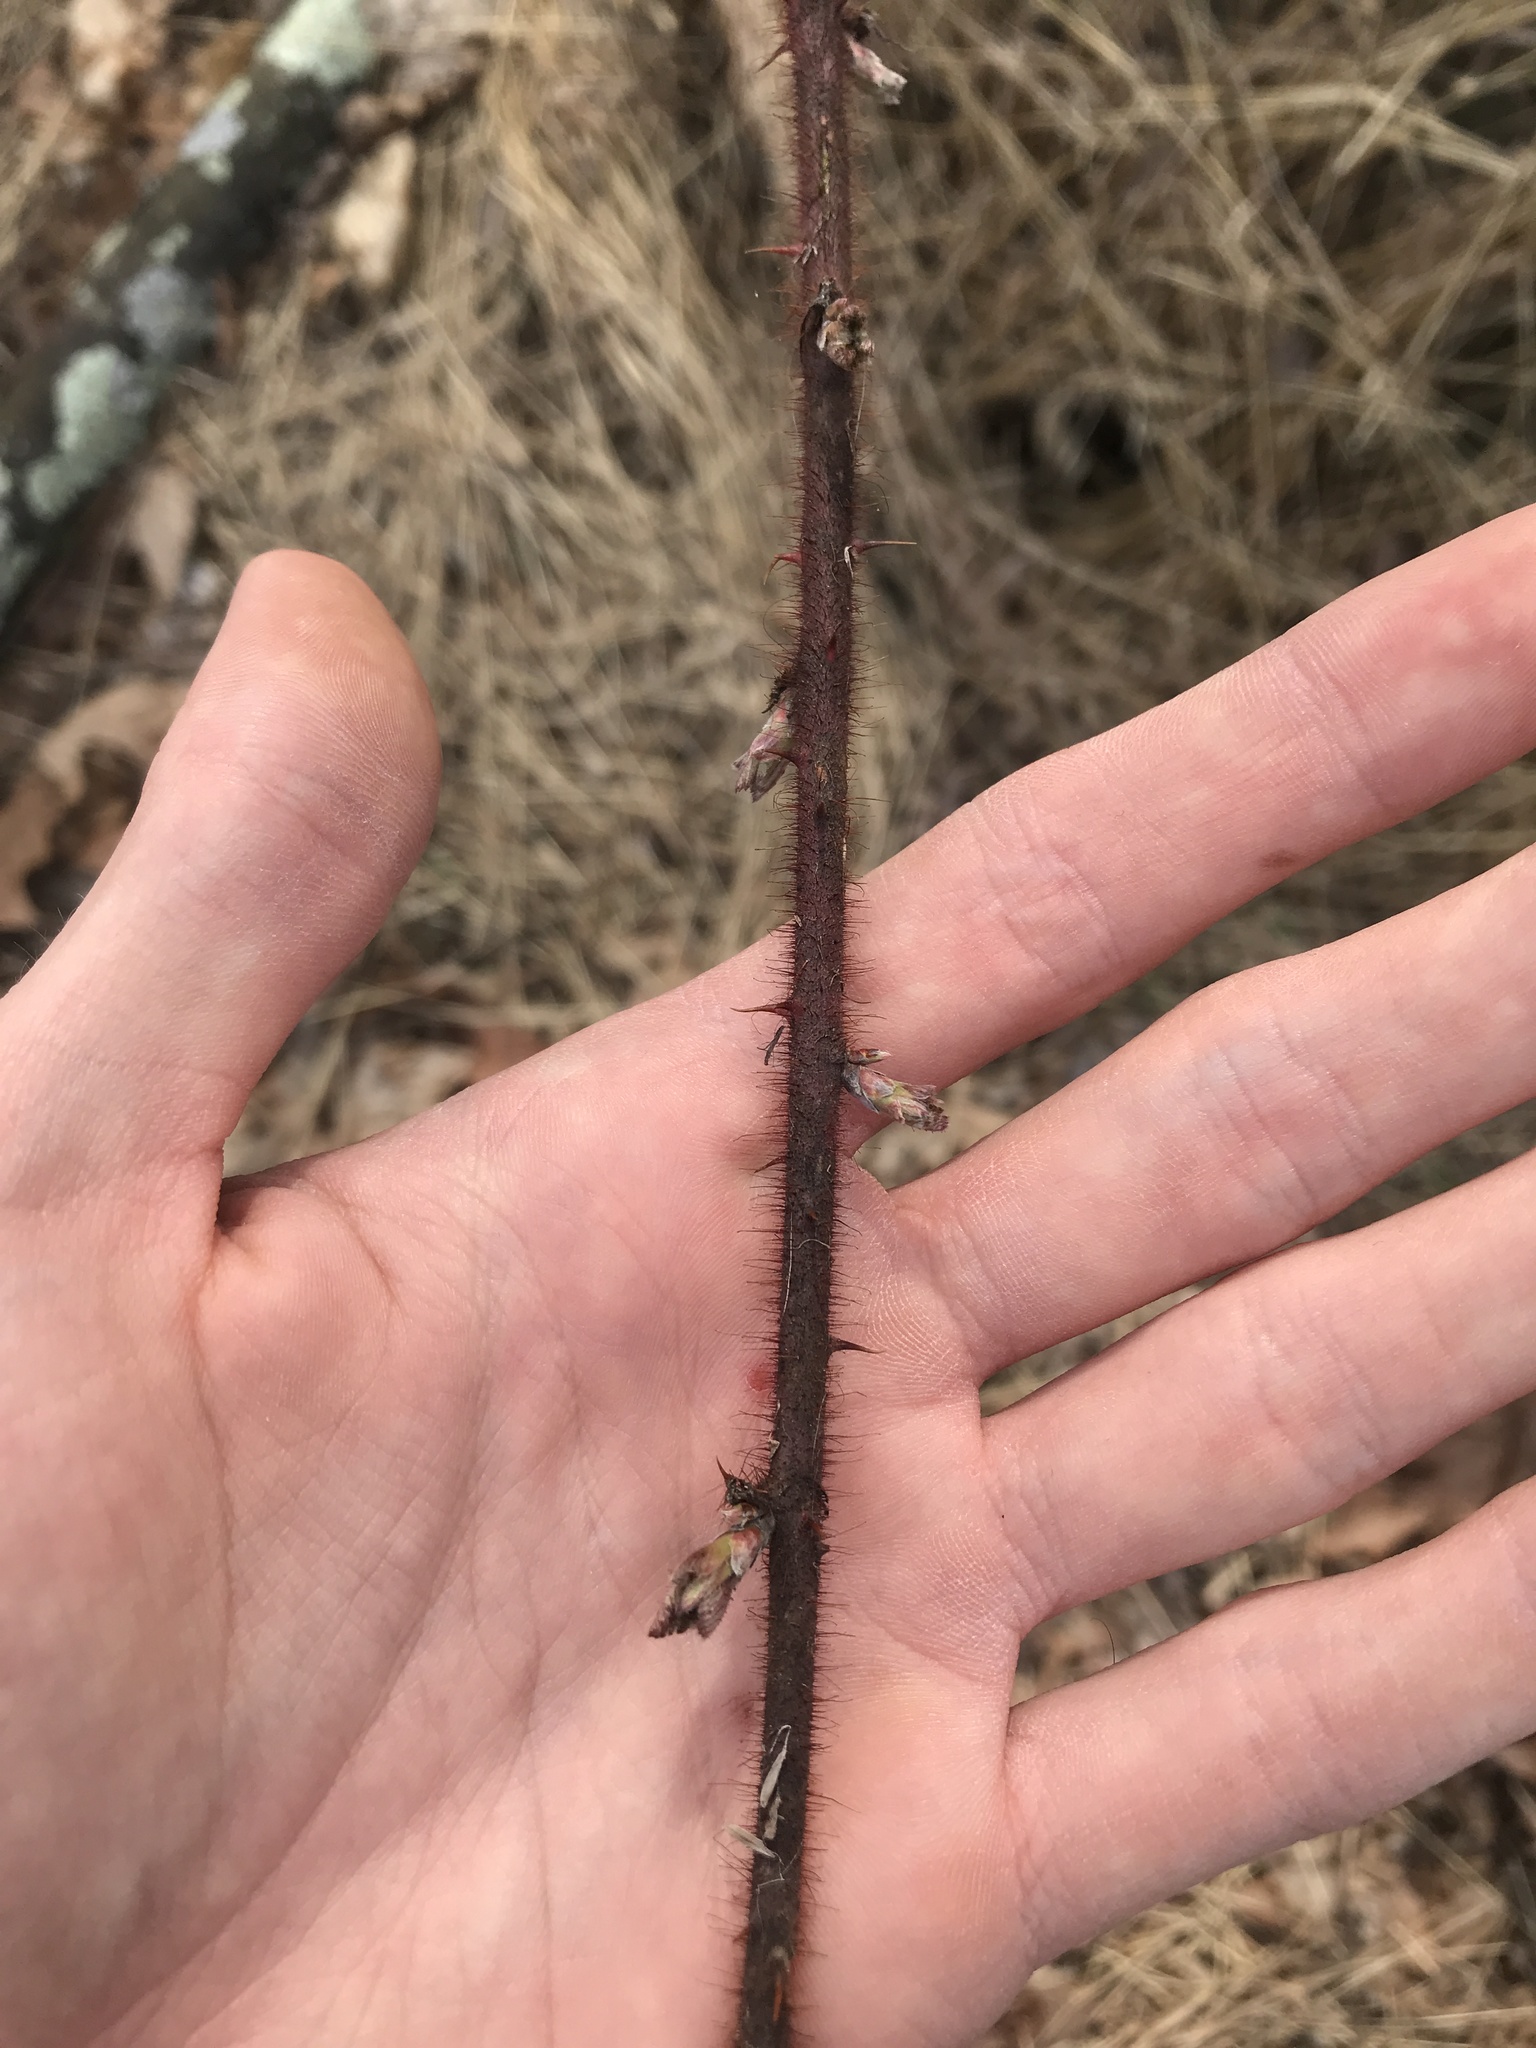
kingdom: Plantae
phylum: Tracheophyta
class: Magnoliopsida
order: Rosales
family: Rosaceae
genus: Rubus
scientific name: Rubus phoenicolasius
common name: Japanese wineberry
